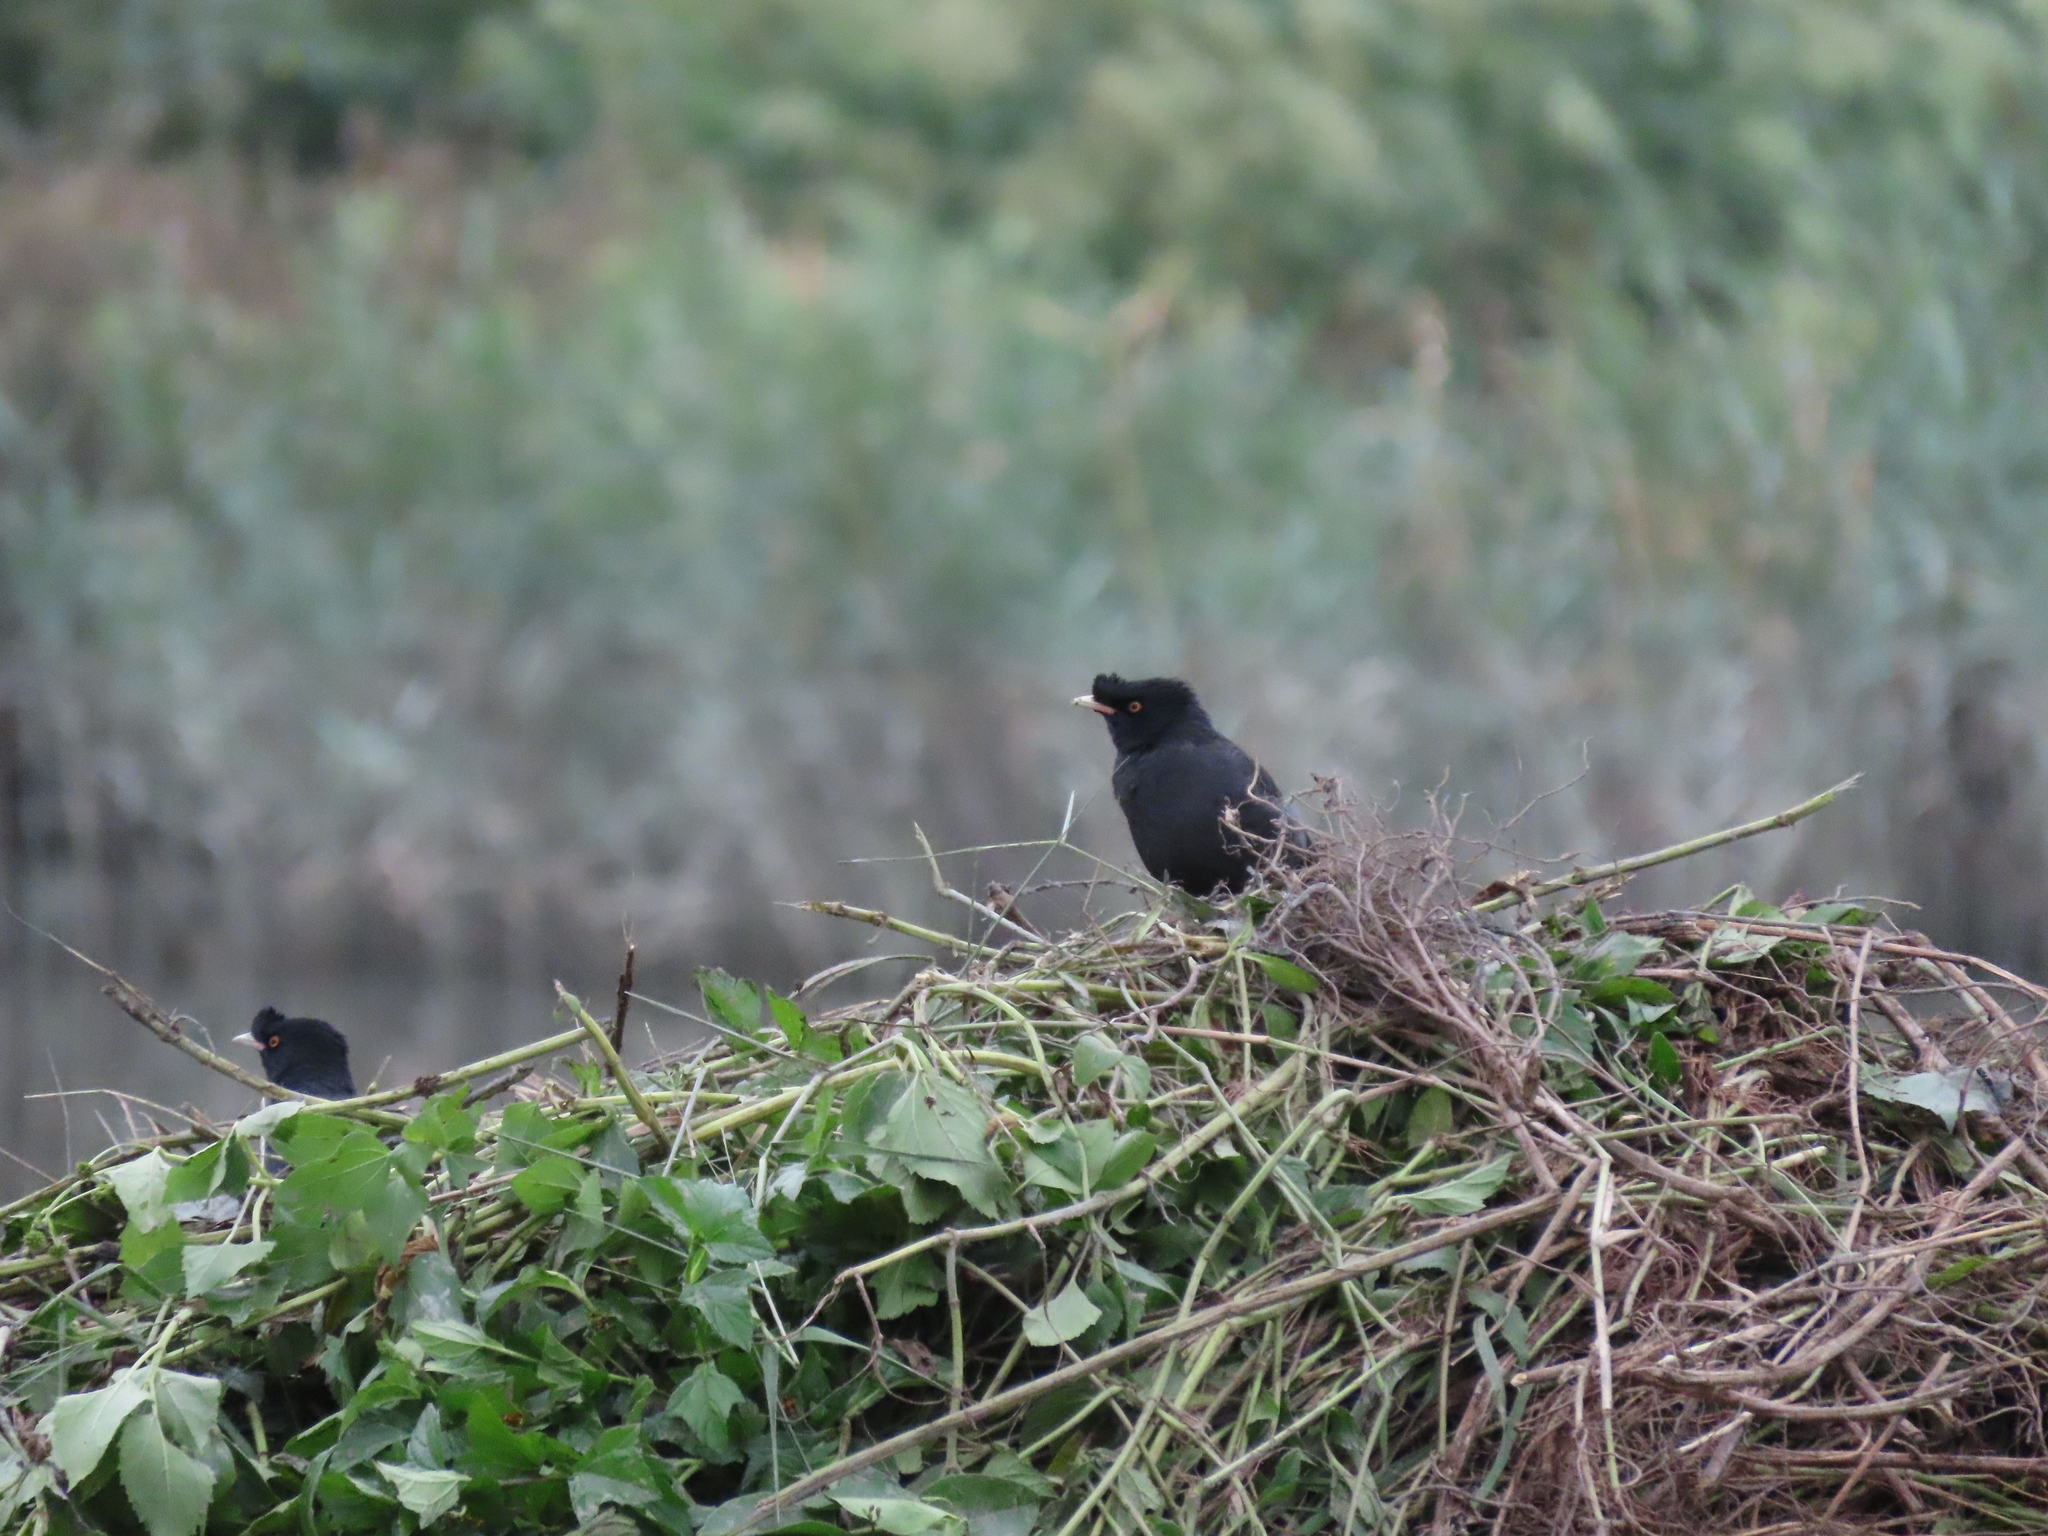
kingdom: Animalia
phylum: Chordata
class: Aves
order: Passeriformes
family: Sturnidae
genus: Acridotheres
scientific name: Acridotheres cristatellus
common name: Crested myna
